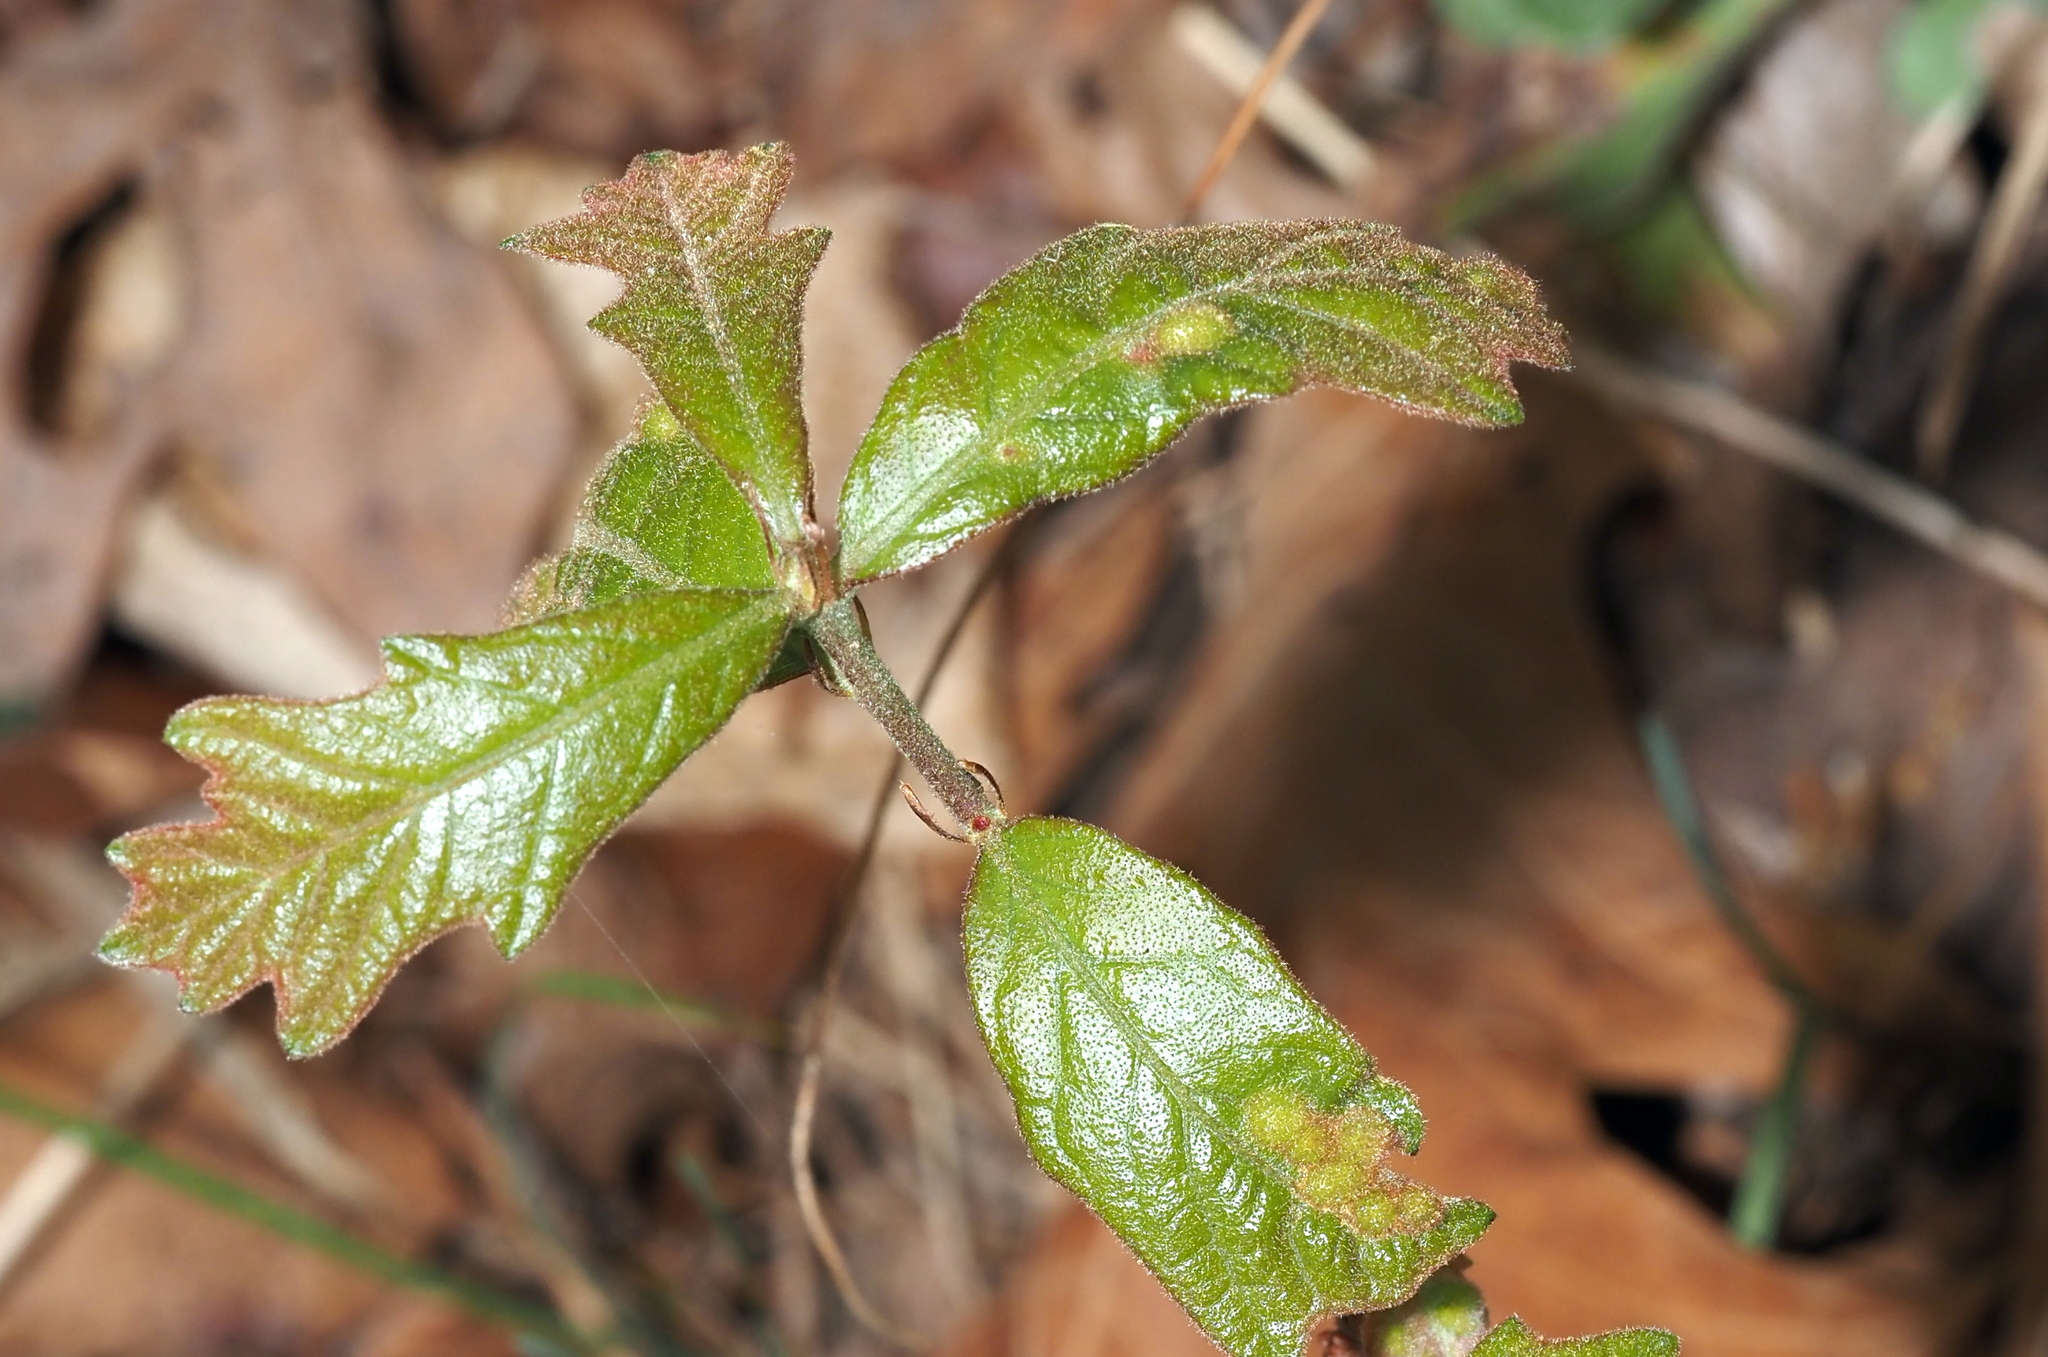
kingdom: Animalia
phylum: Arthropoda
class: Insecta
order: Hymenoptera
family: Cynipidae
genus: Neuroterus
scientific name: Neuroterus quercusirregularis
